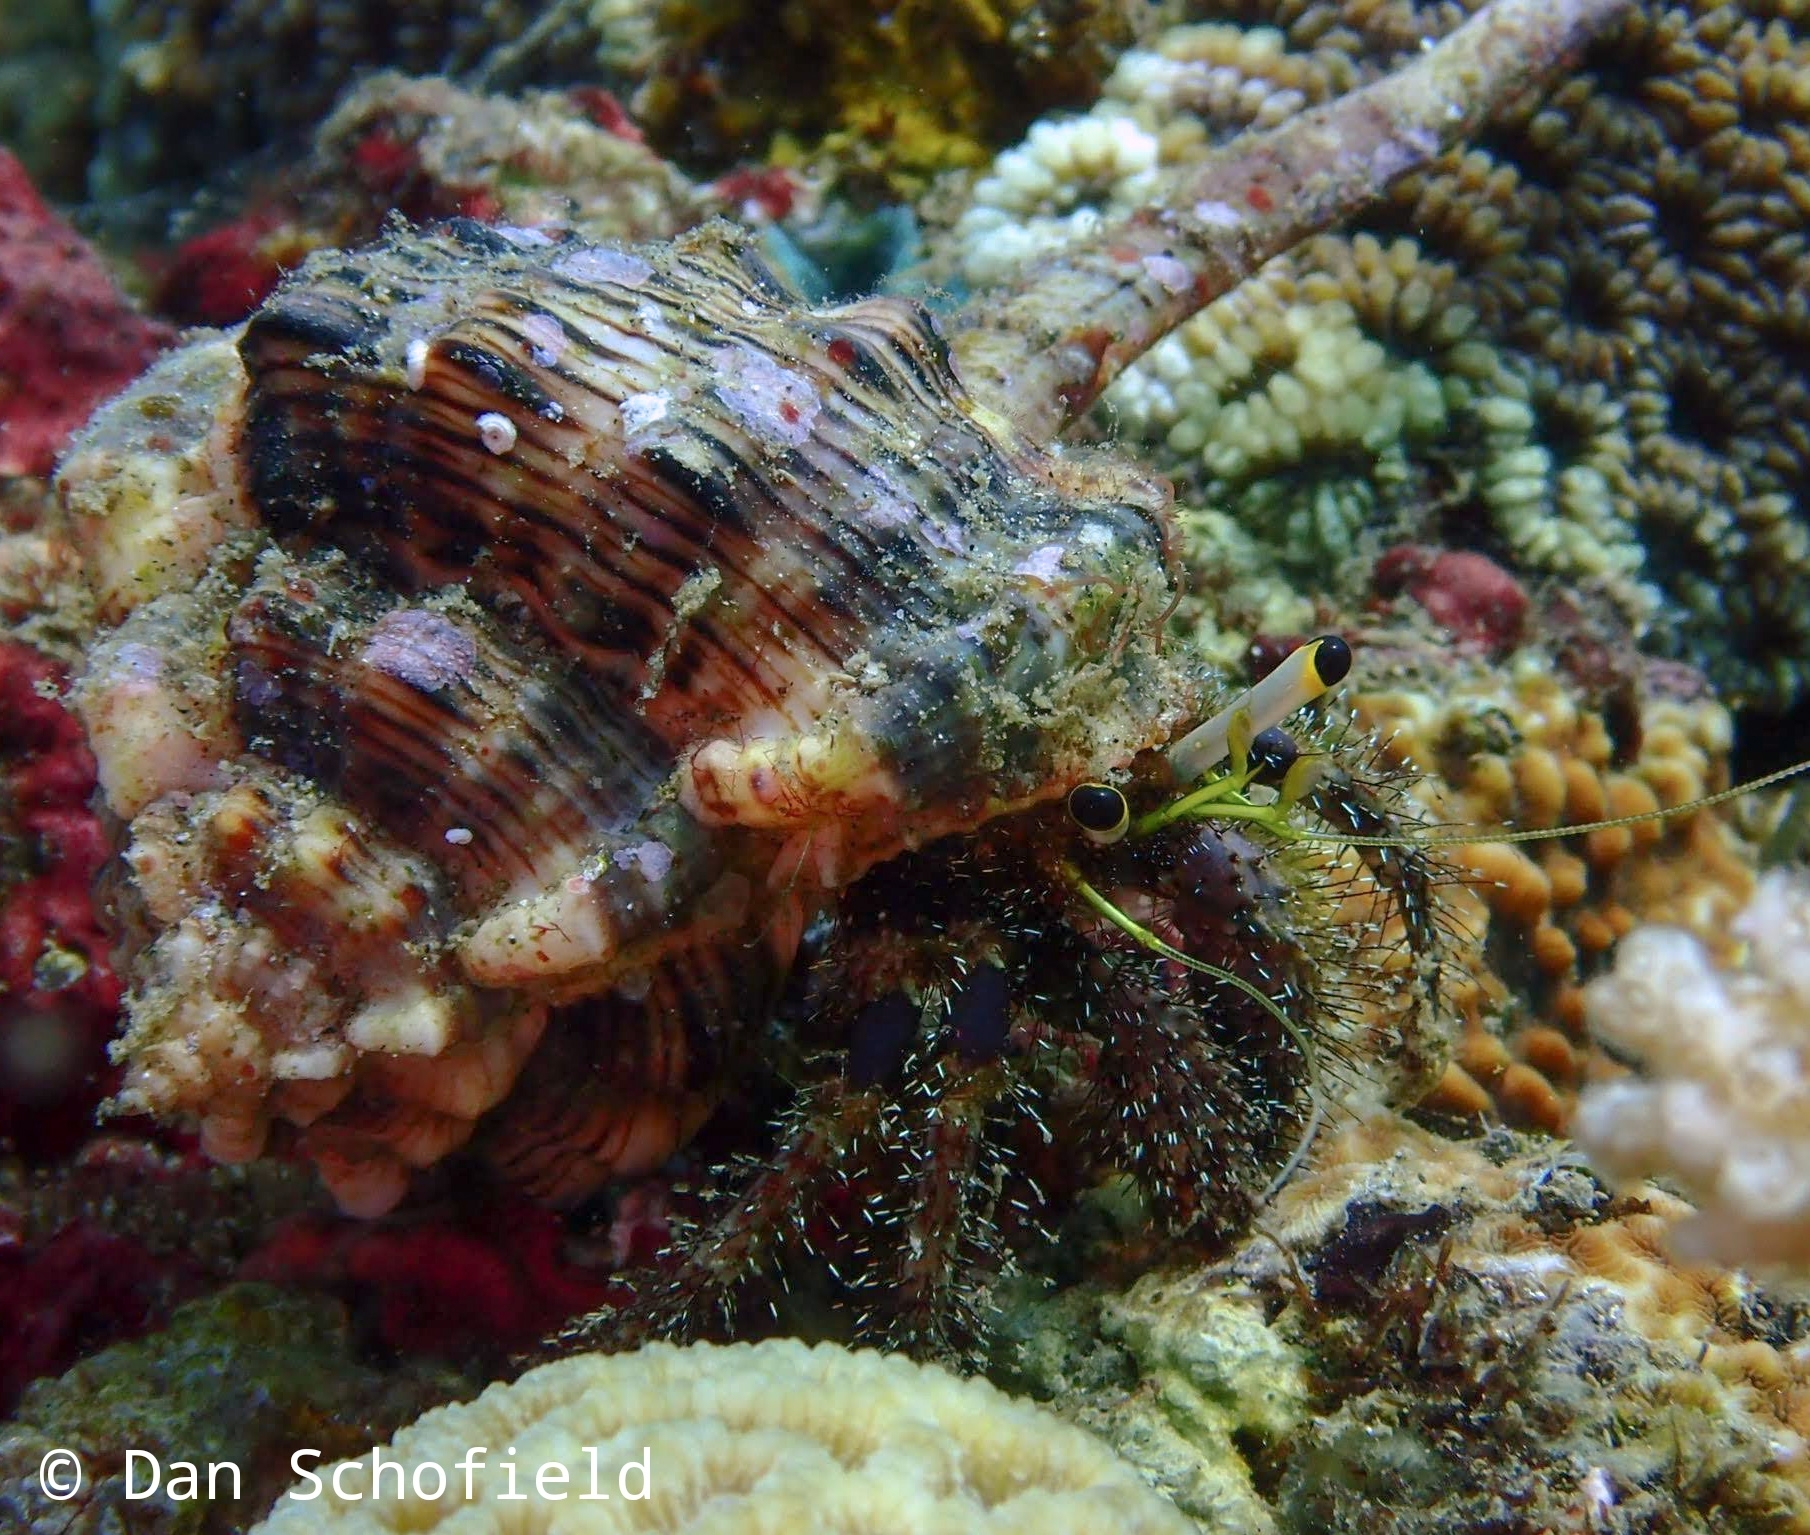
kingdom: Animalia
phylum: Arthropoda
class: Malacostraca
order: Decapoda
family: Diogenidae
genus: Dardanus
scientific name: Dardanus lagopodes
